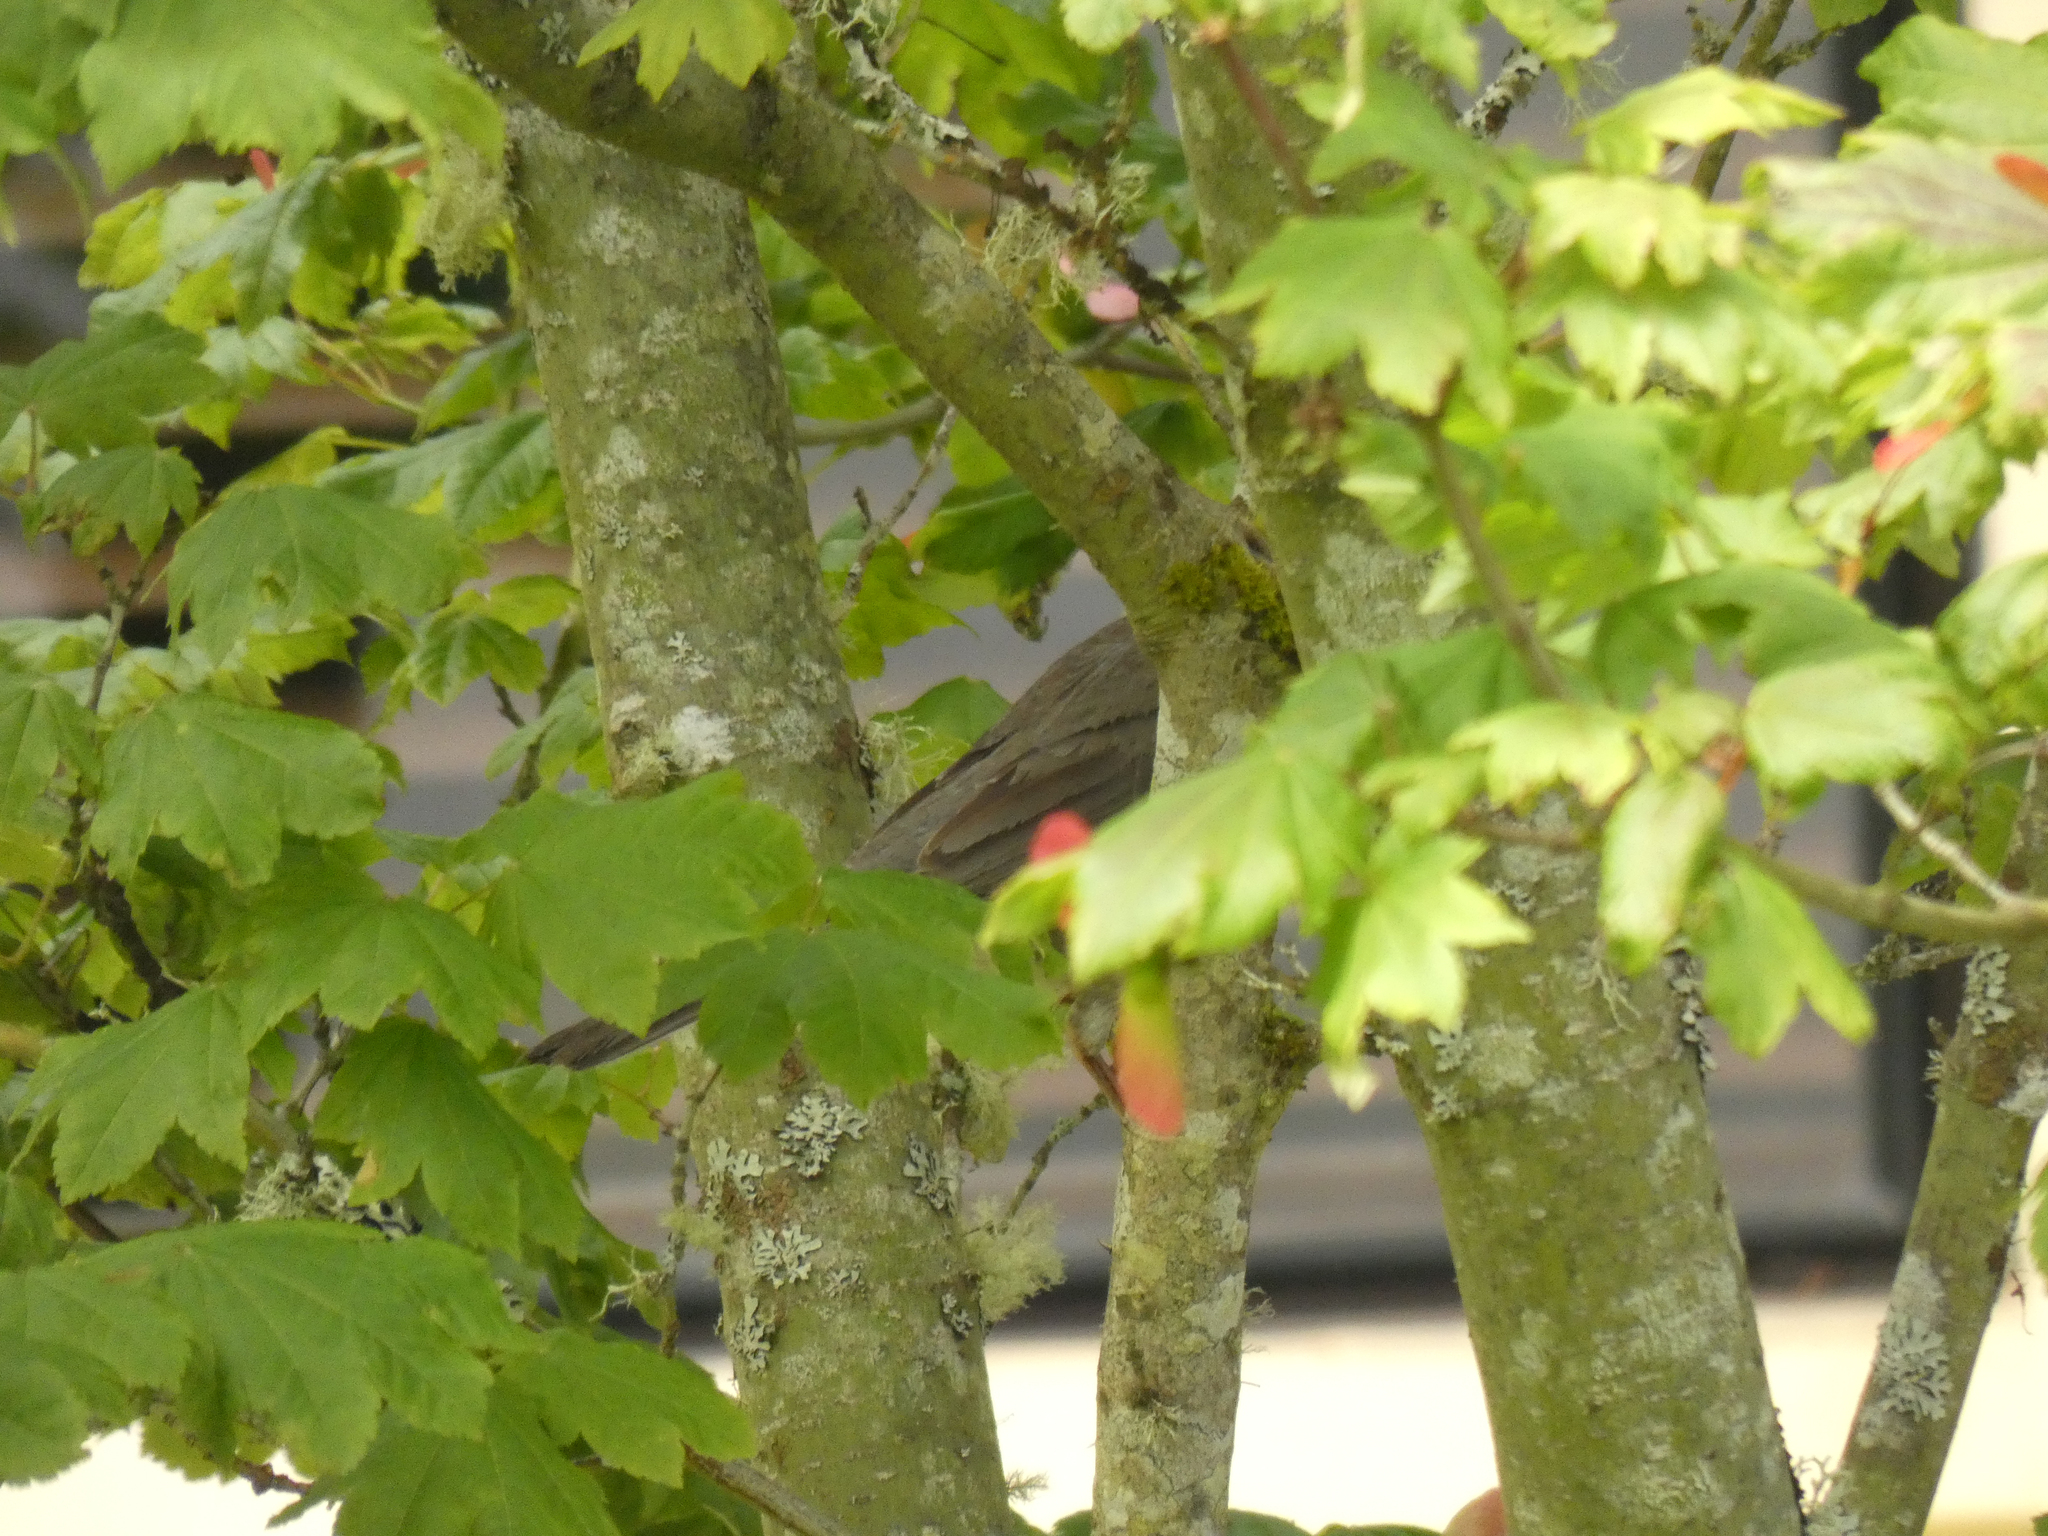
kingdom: Animalia
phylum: Chordata
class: Aves
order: Passeriformes
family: Turdidae
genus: Turdus
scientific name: Turdus migratorius
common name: American robin
